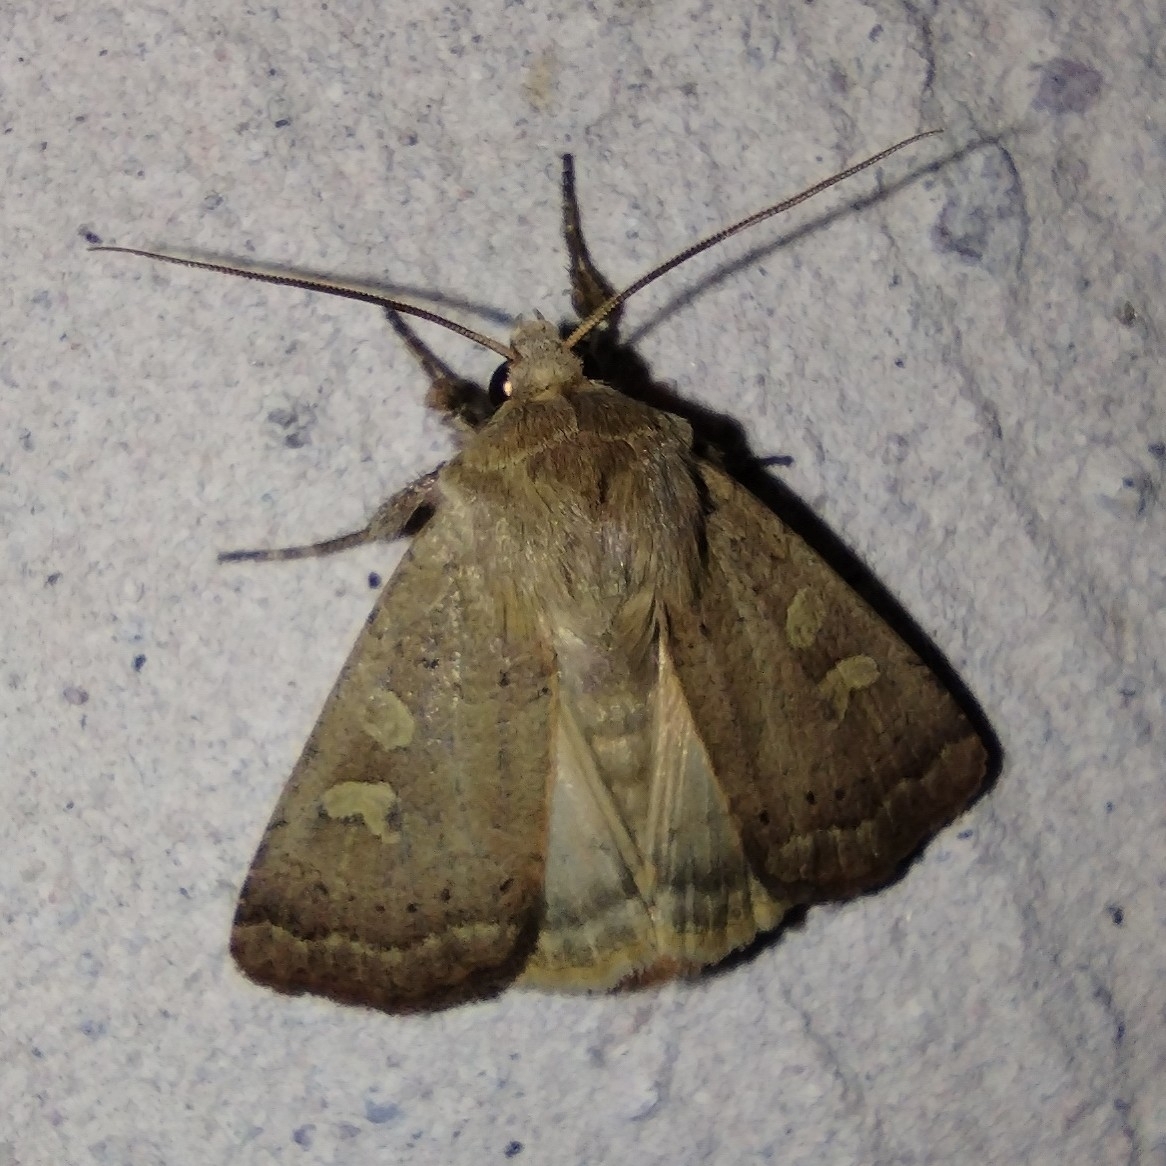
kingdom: Animalia
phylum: Arthropoda
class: Insecta
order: Lepidoptera
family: Noctuidae
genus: Xestia
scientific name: Xestia xanthographa
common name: Square-spot rustic
